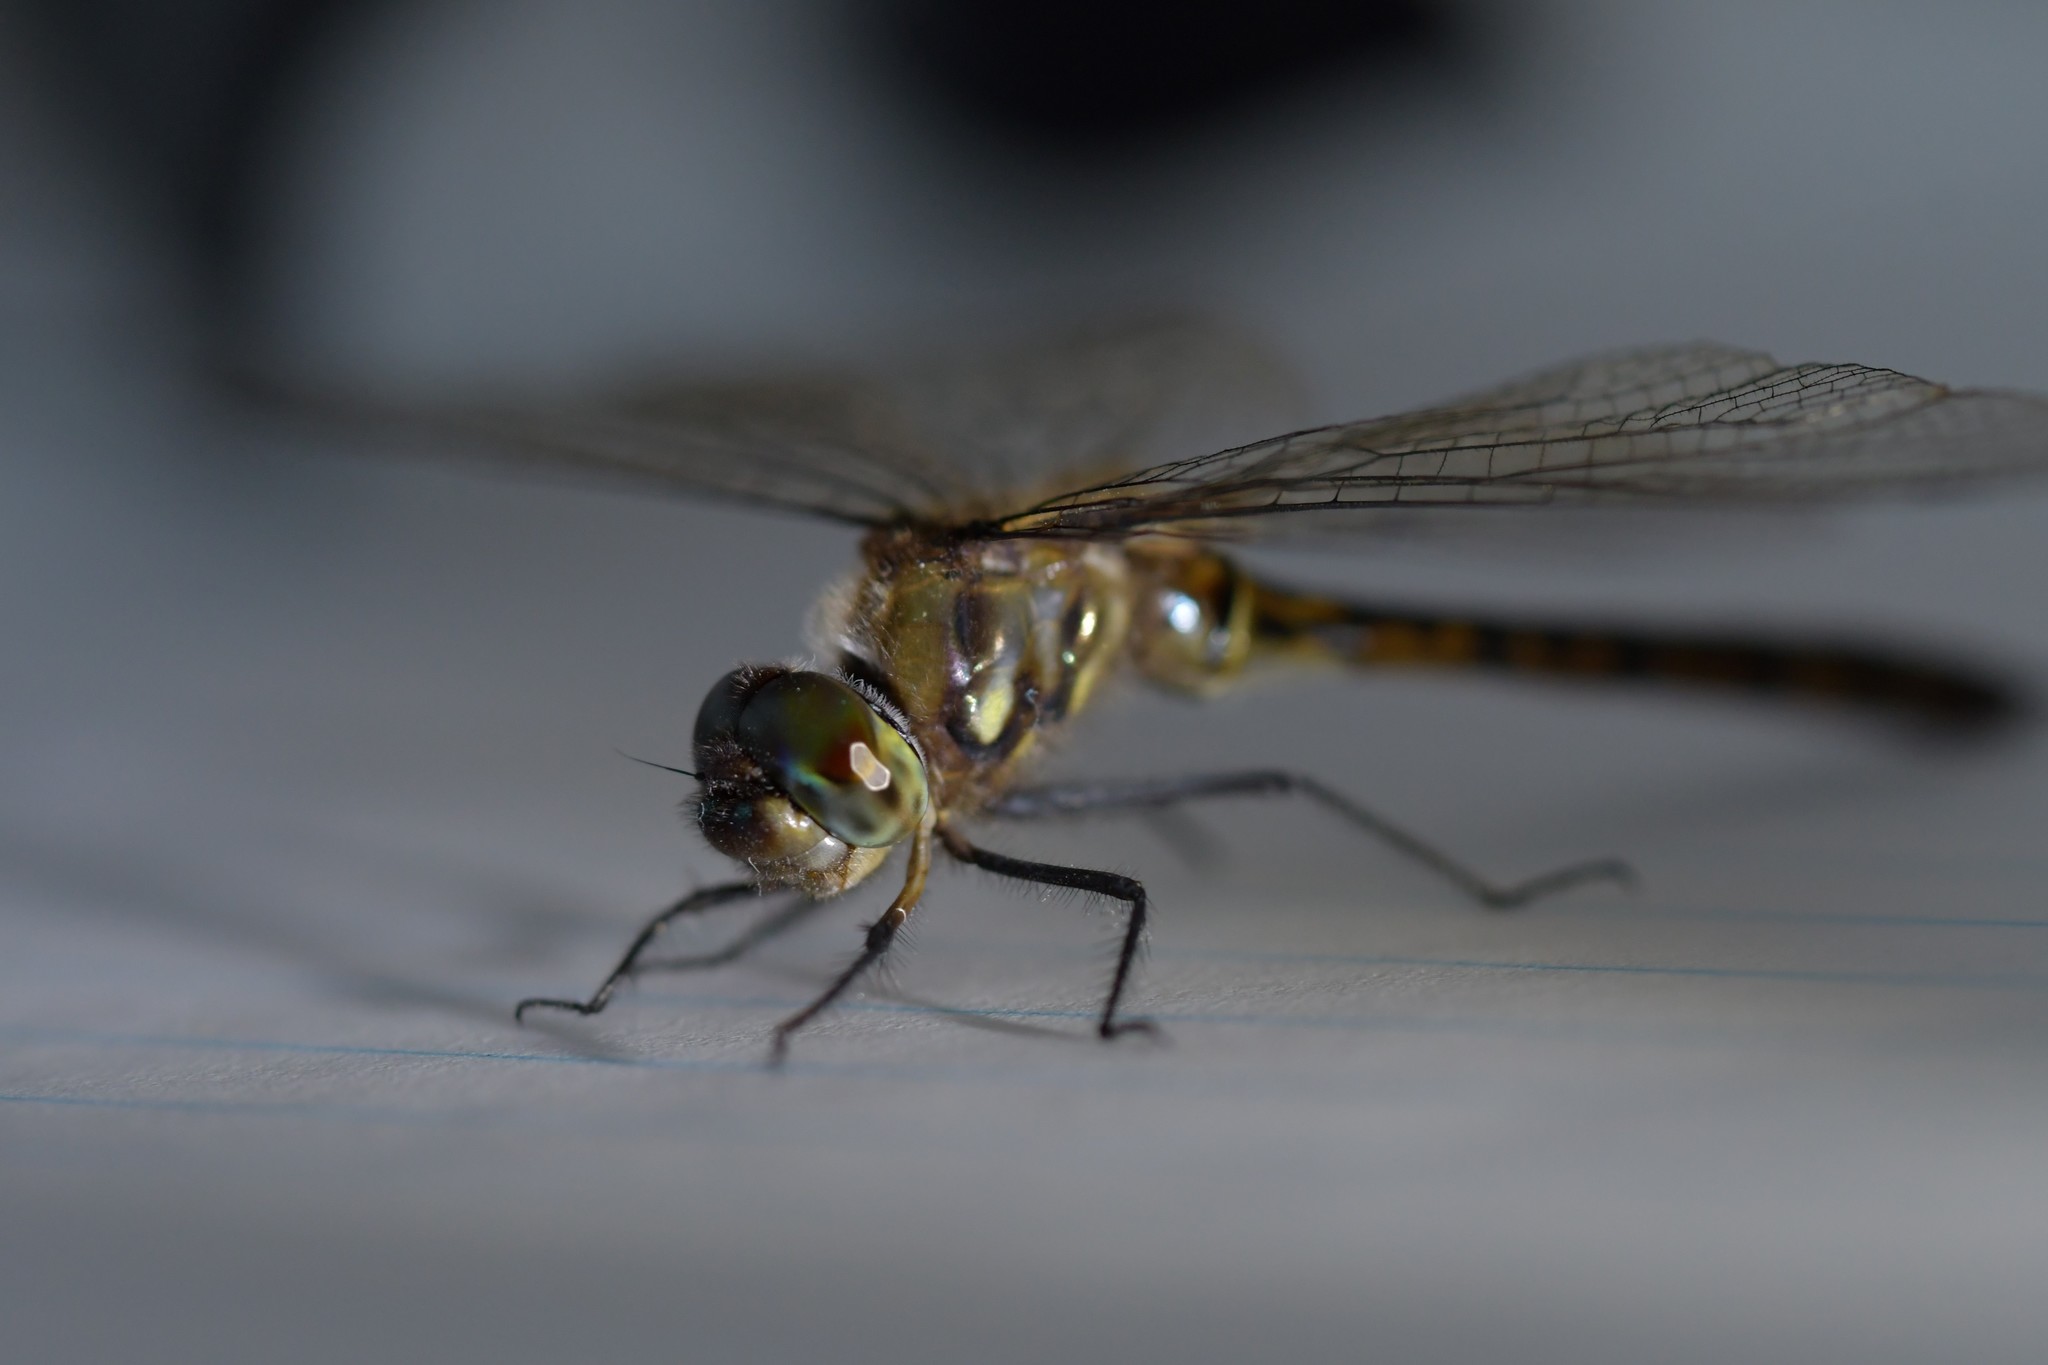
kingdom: Animalia
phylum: Arthropoda
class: Insecta
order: Odonata
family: Corduliidae
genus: Hemicordulia
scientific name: Hemicordulia australiae
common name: Sentry dragonfly
